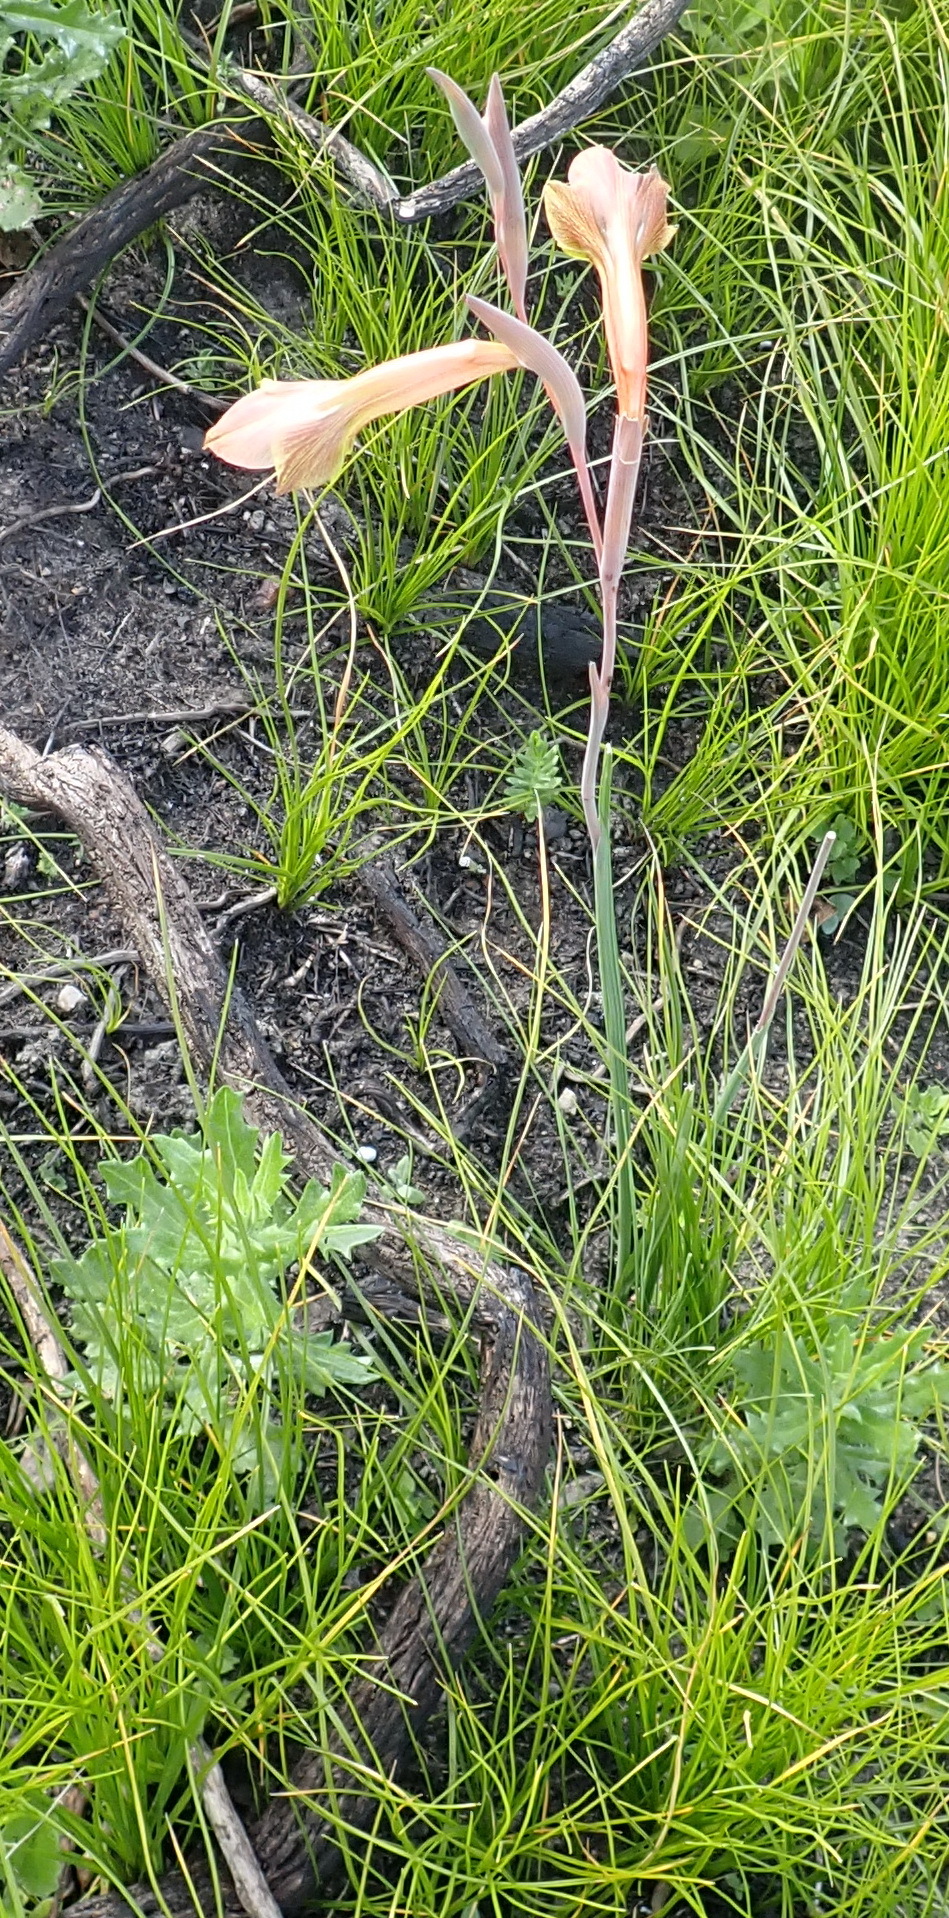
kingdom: Plantae
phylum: Tracheophyta
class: Liliopsida
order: Asparagales
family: Iridaceae
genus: Gladiolus
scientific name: Gladiolus fourcadei
